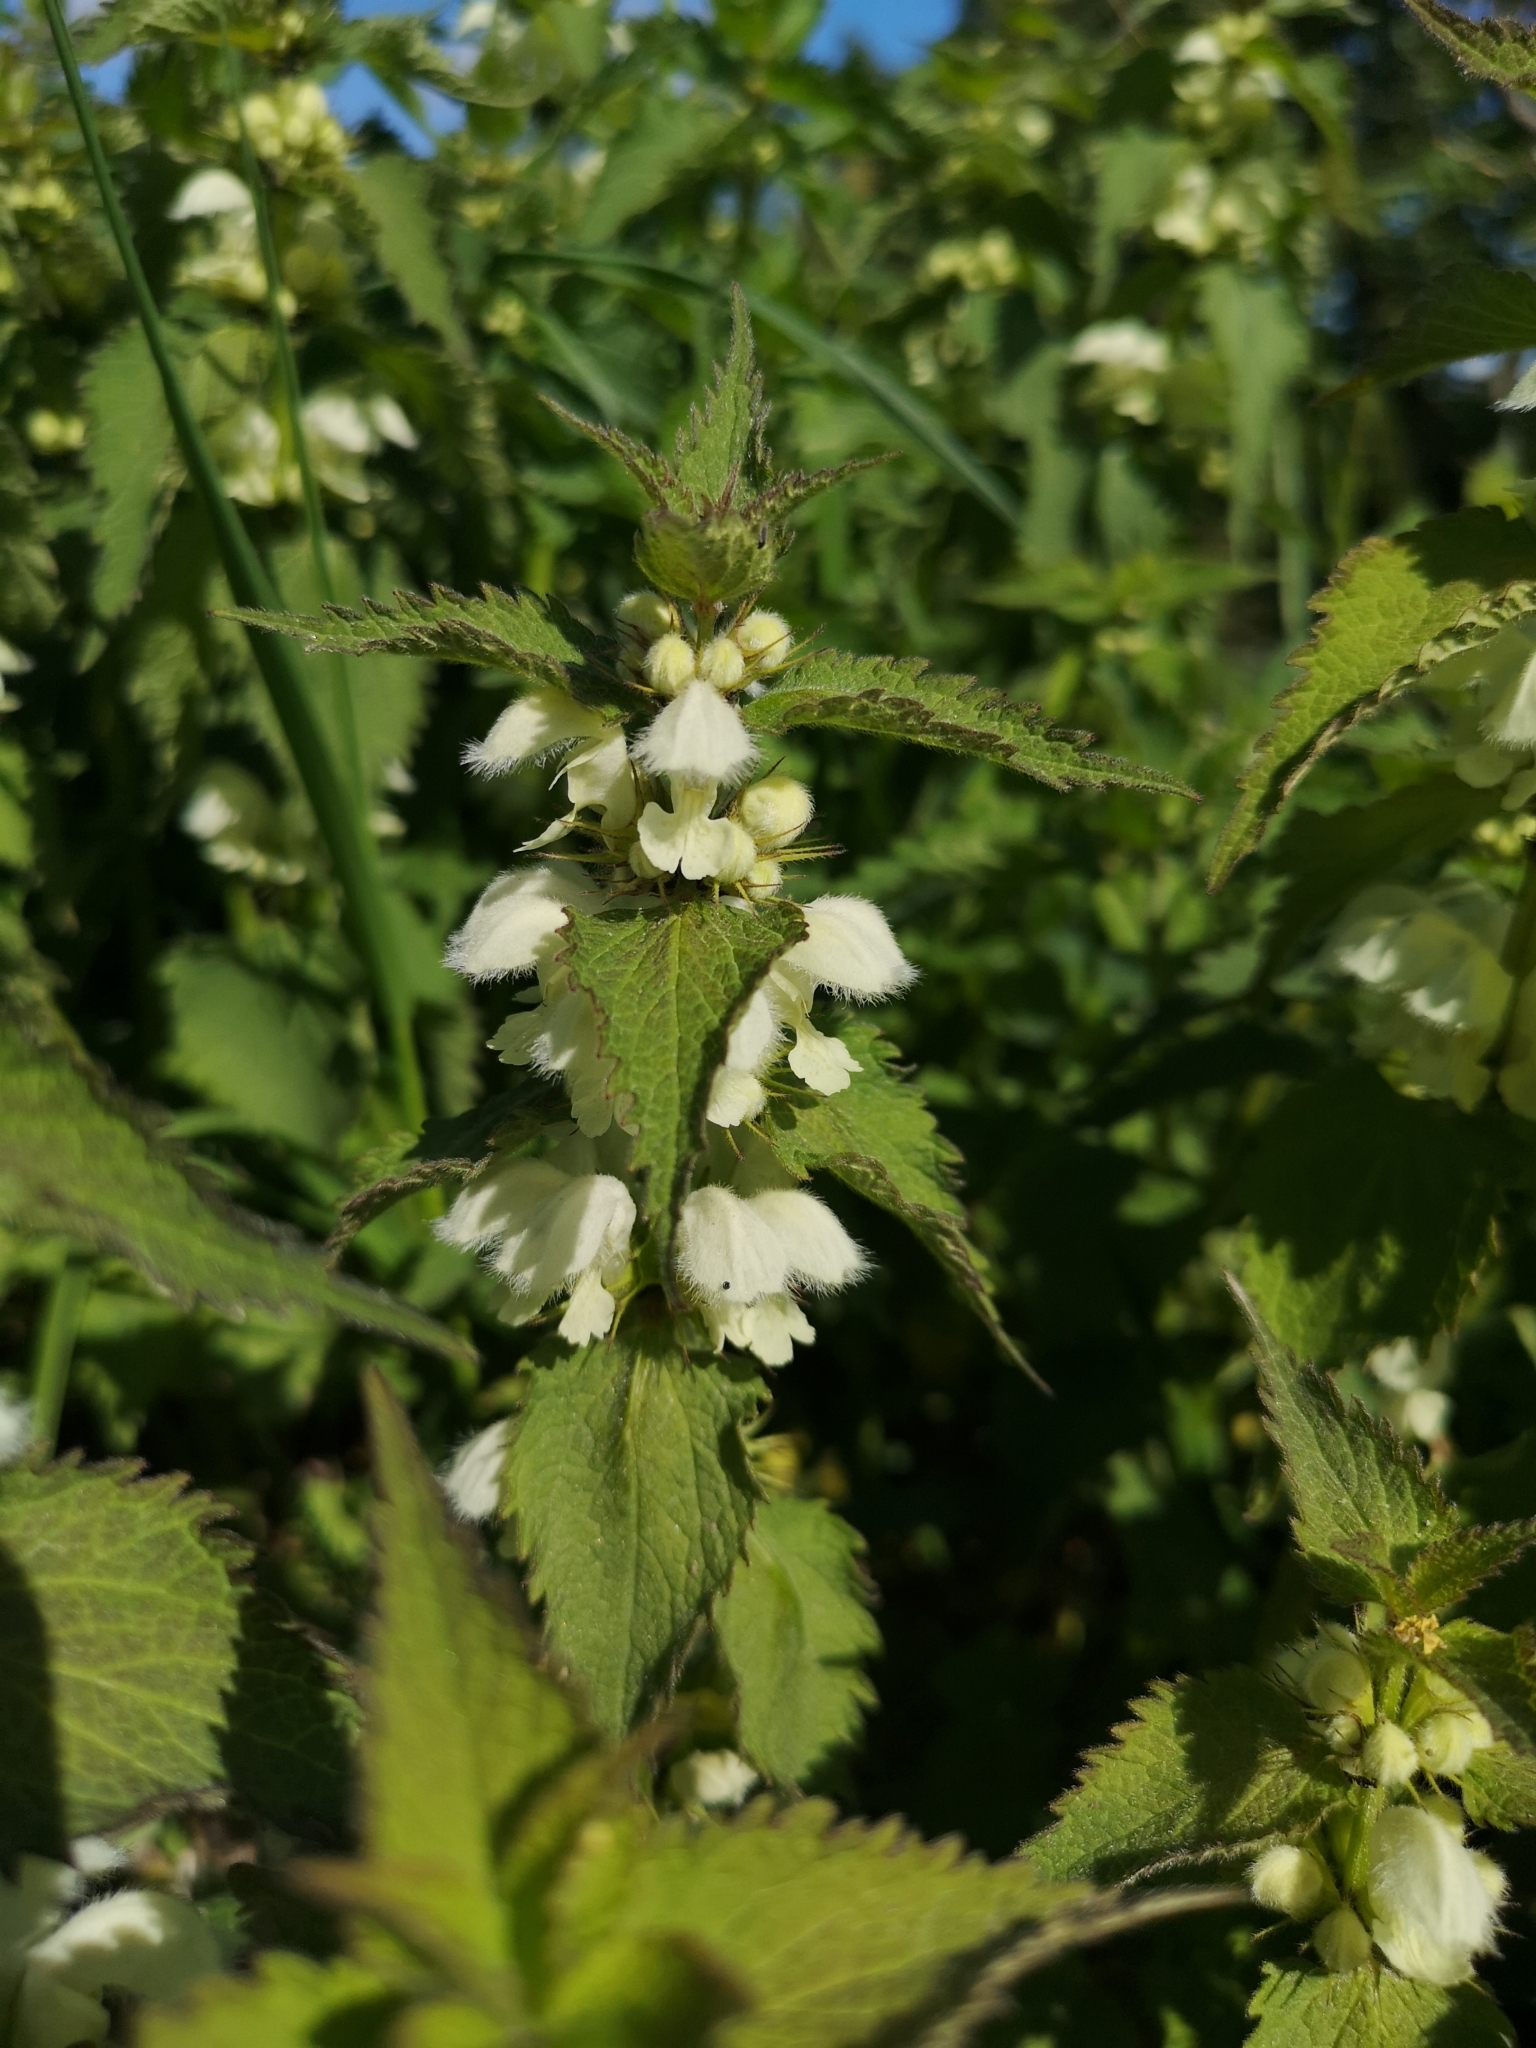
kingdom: Plantae
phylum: Tracheophyta
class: Magnoliopsida
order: Lamiales
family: Lamiaceae
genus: Lamium
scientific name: Lamium album
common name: White dead-nettle
